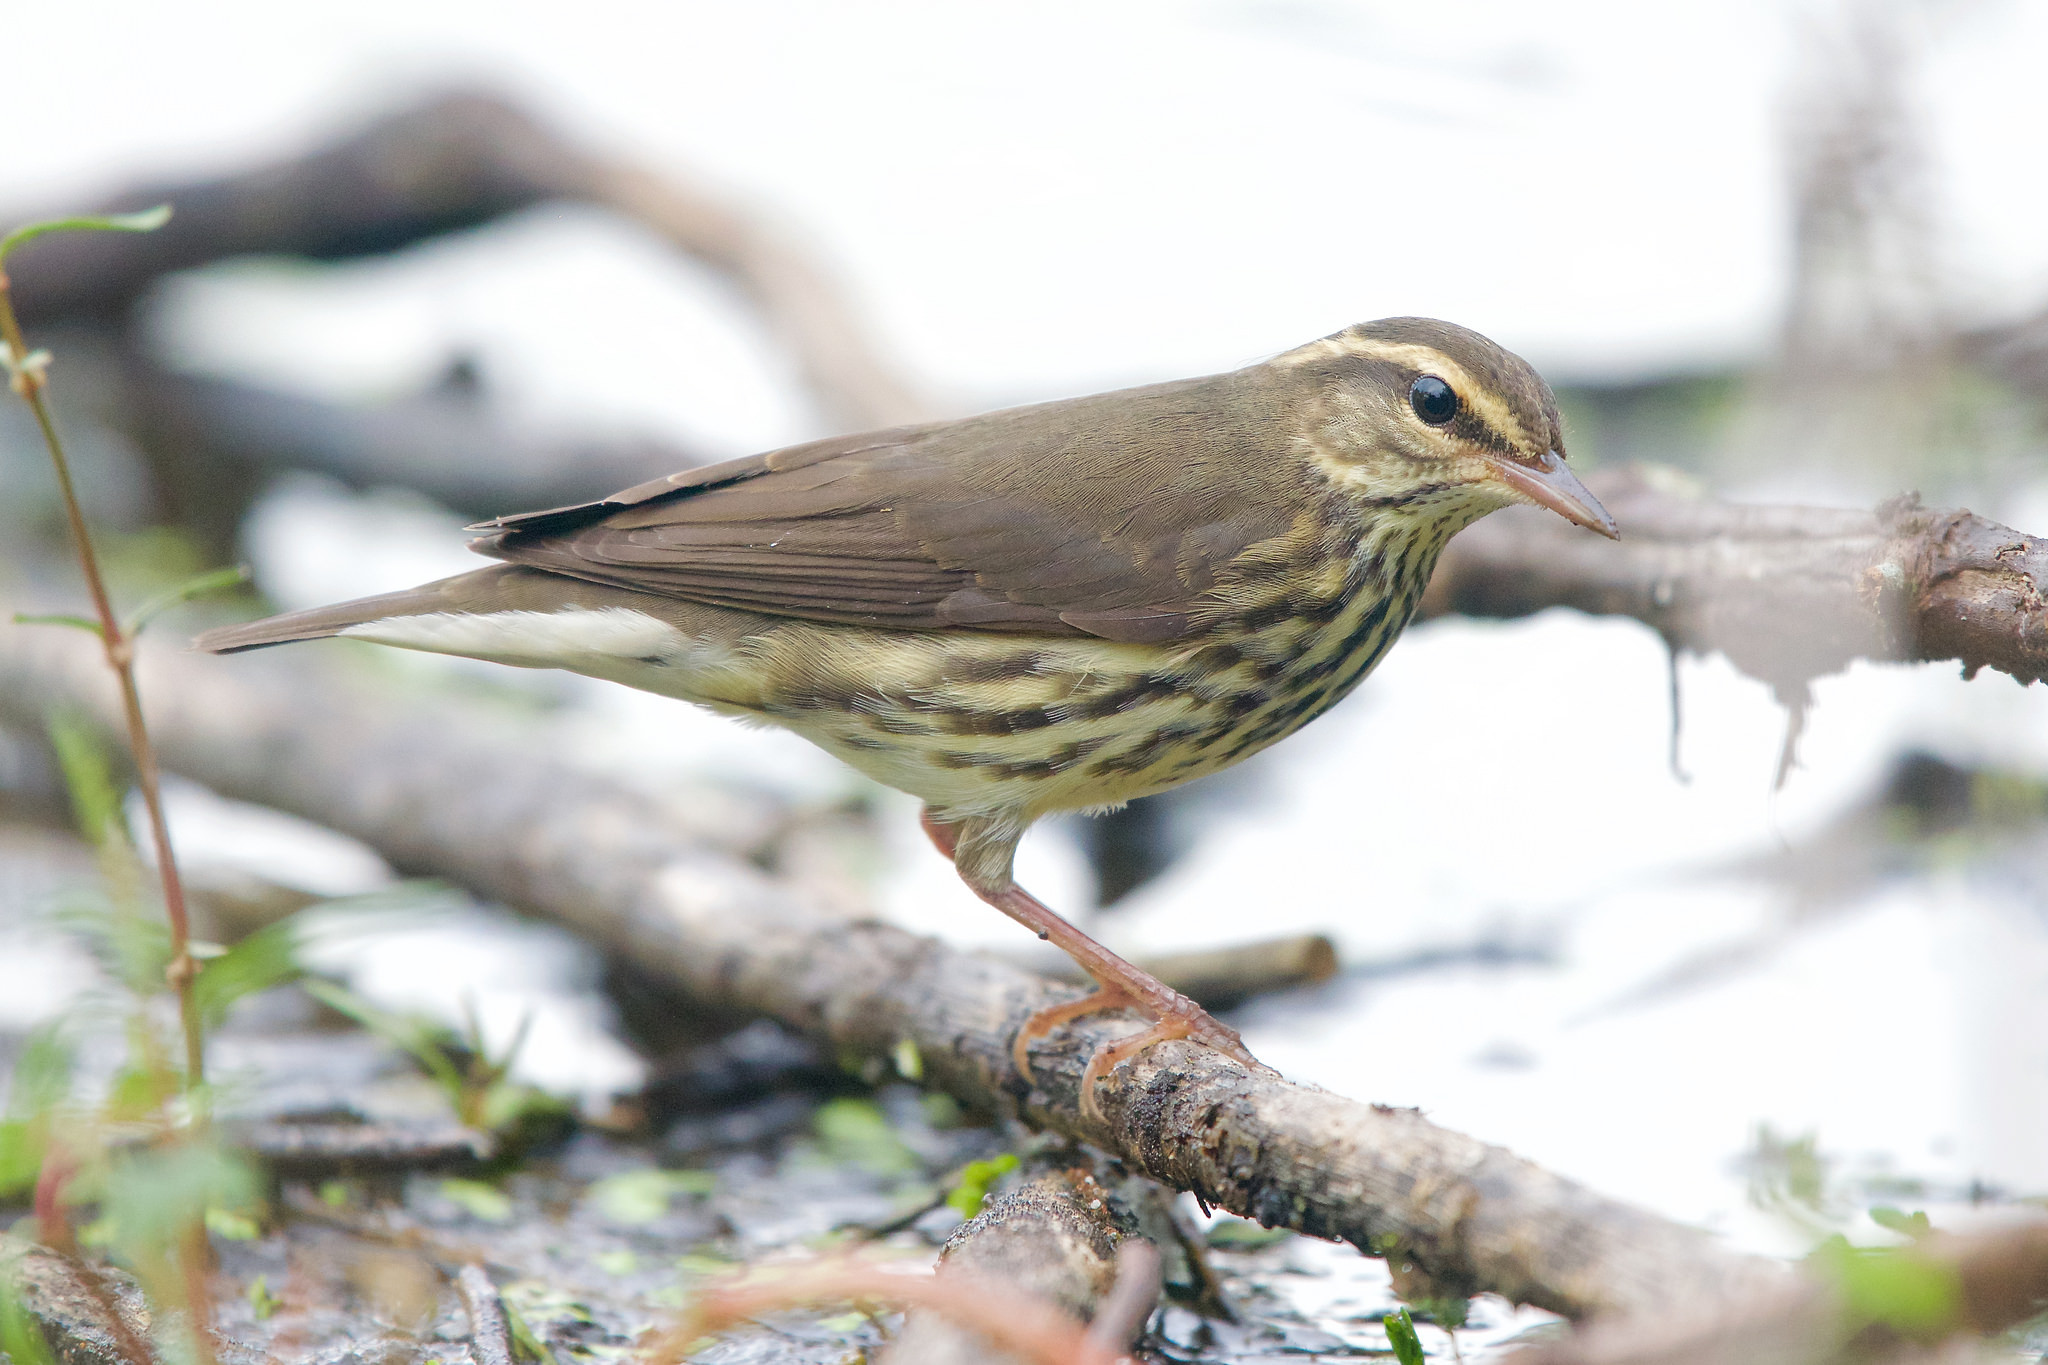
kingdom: Animalia
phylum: Chordata
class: Aves
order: Passeriformes
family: Parulidae
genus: Parkesia
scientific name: Parkesia noveboracensis
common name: Northern waterthrush
